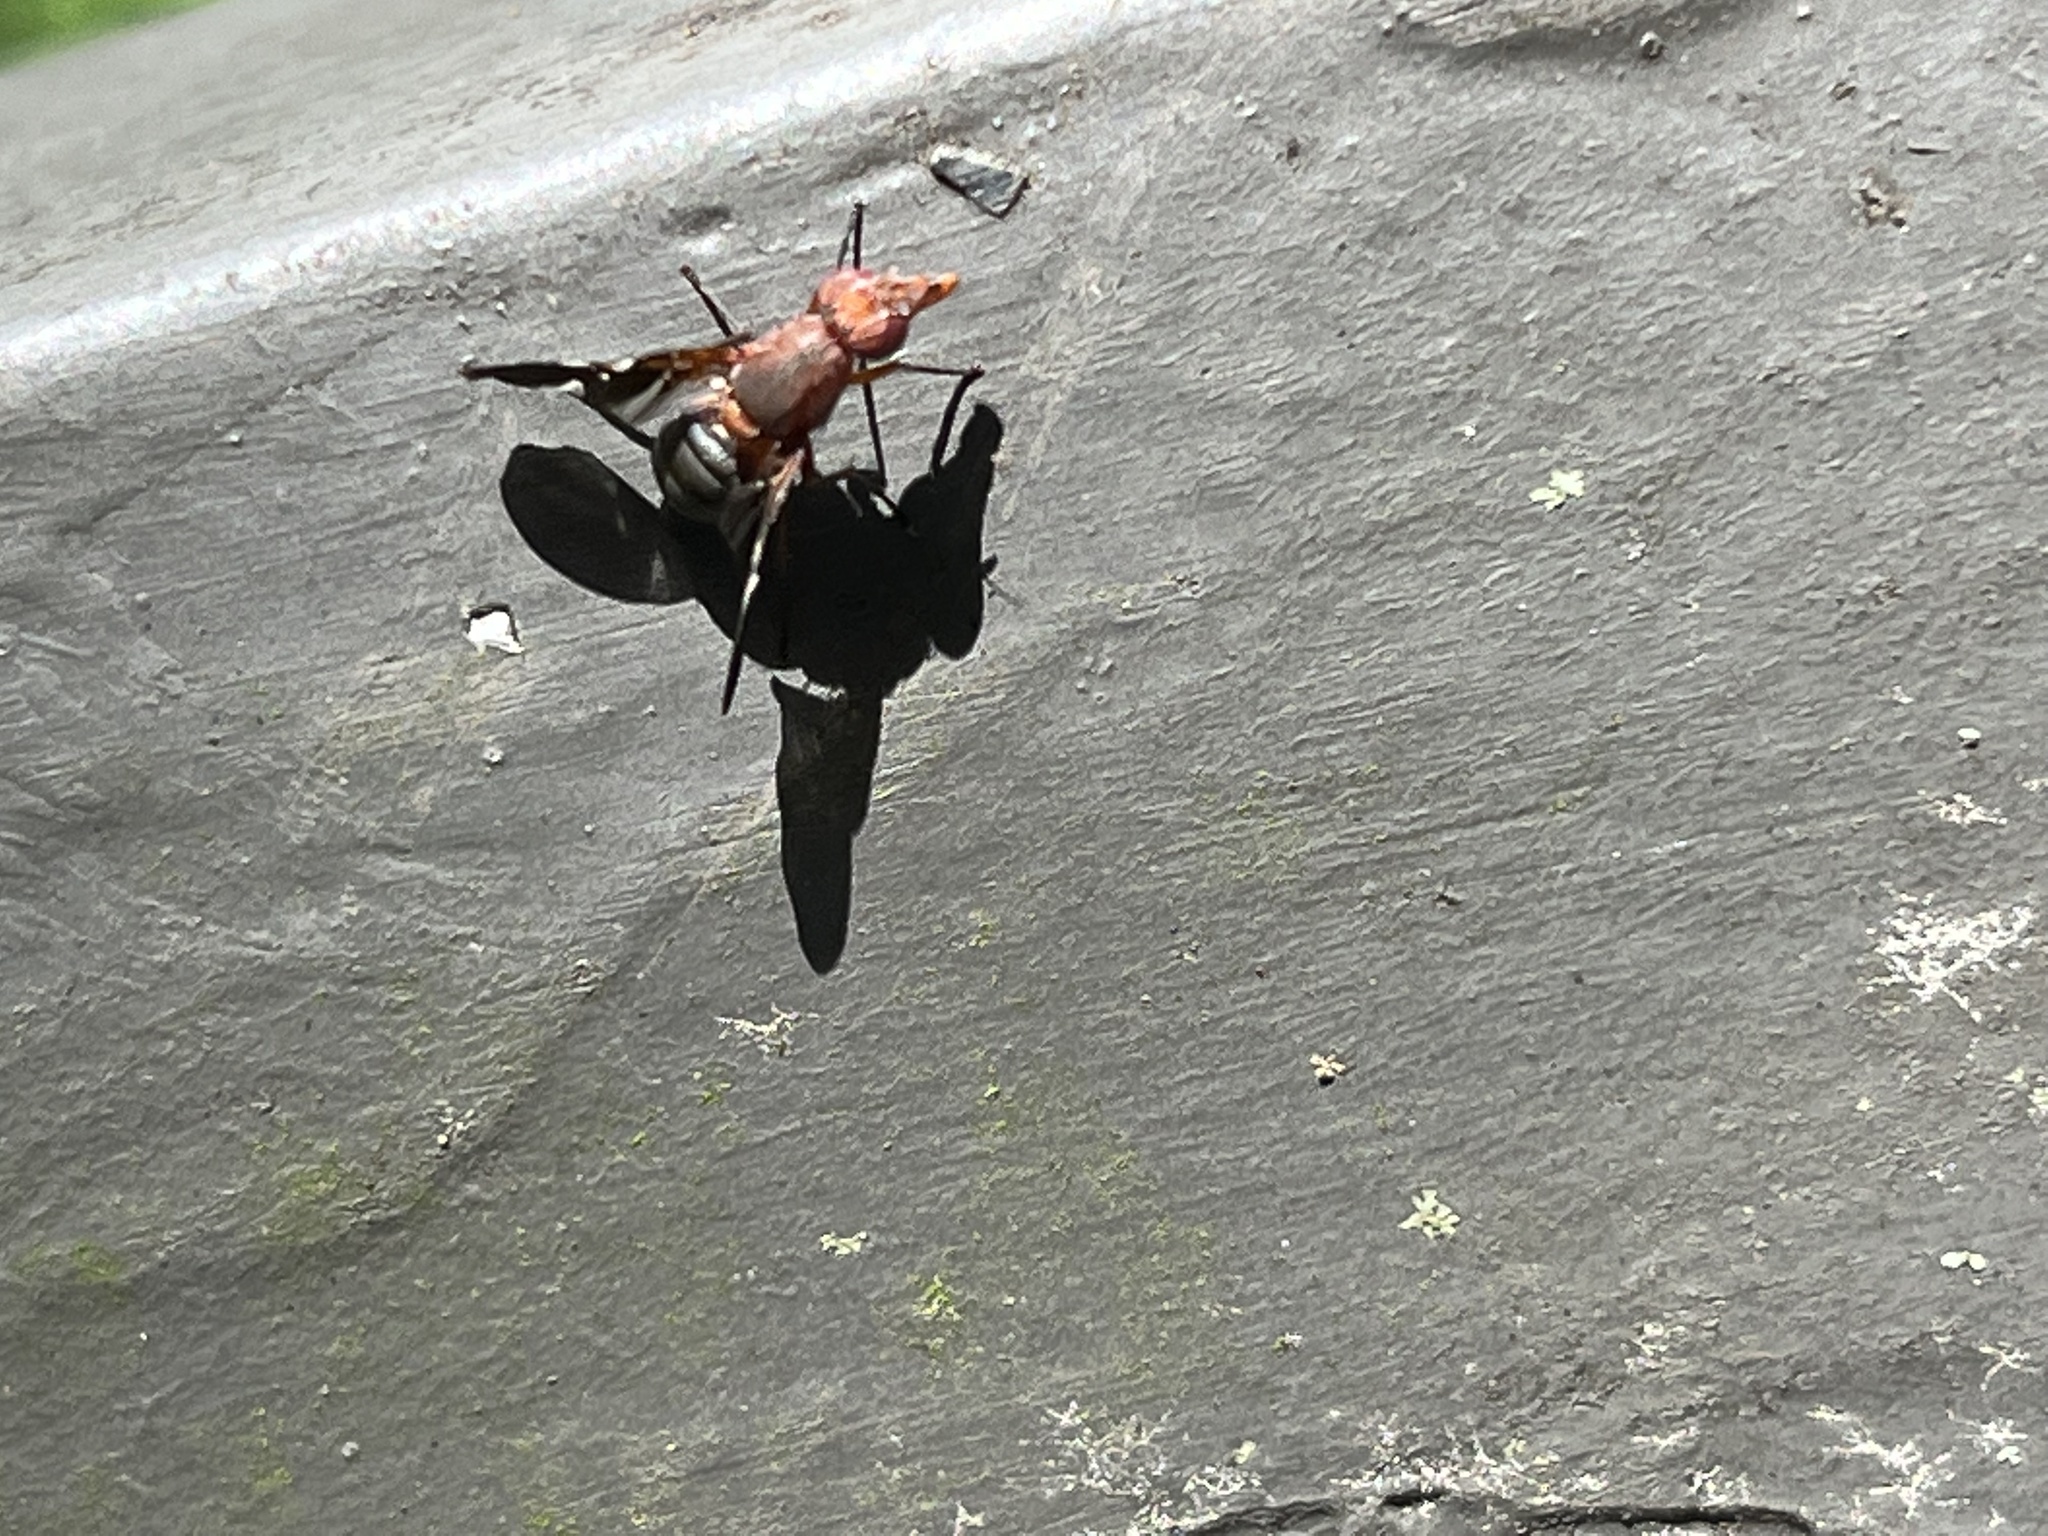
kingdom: Animalia
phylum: Arthropoda
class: Insecta
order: Diptera
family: Ulidiidae
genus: Delphinia
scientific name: Delphinia picta
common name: Common picture-winged fly
